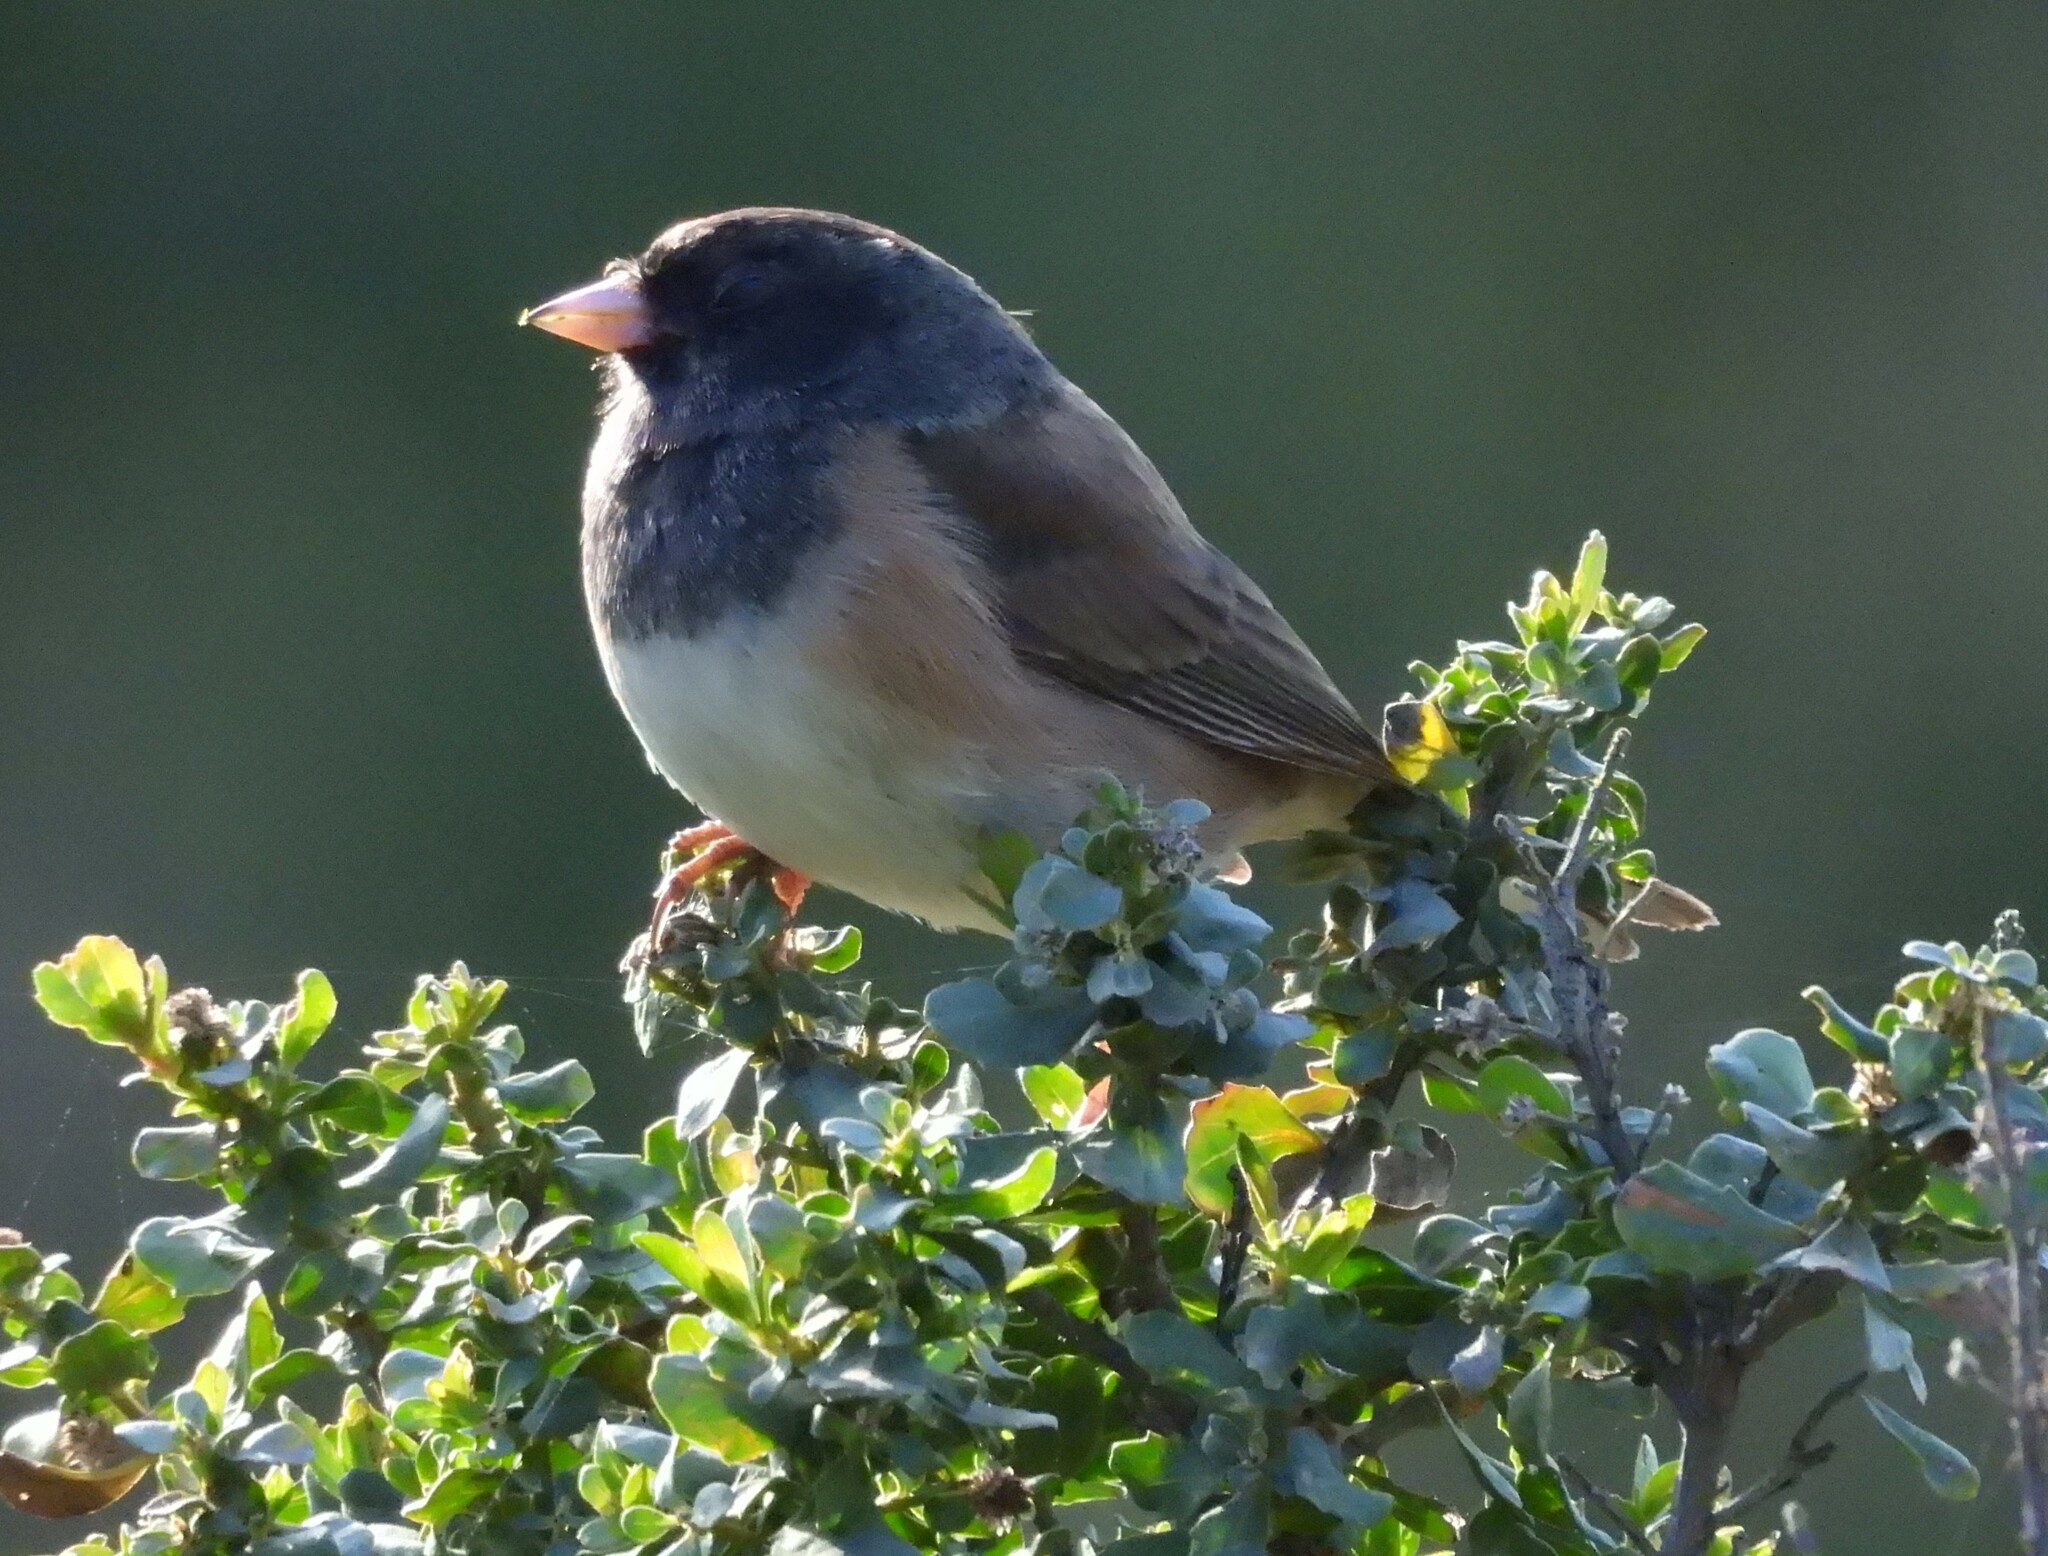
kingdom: Animalia
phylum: Chordata
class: Aves
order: Passeriformes
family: Passerellidae
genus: Junco
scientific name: Junco hyemalis
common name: Dark-eyed junco
